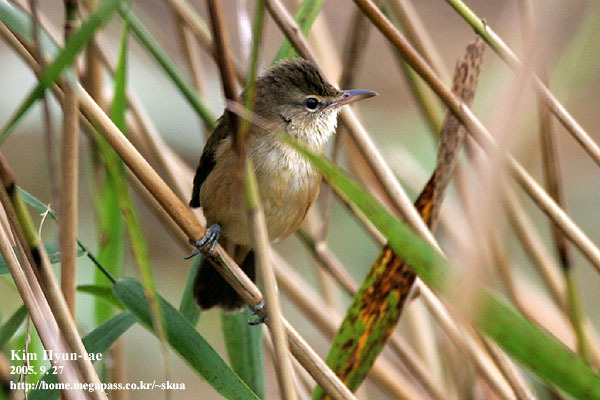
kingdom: Animalia
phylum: Chordata
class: Aves
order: Passeriformes
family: Acrocephalidae
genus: Acrocephalus
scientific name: Acrocephalus orientalis
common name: Oriental reed warbler
